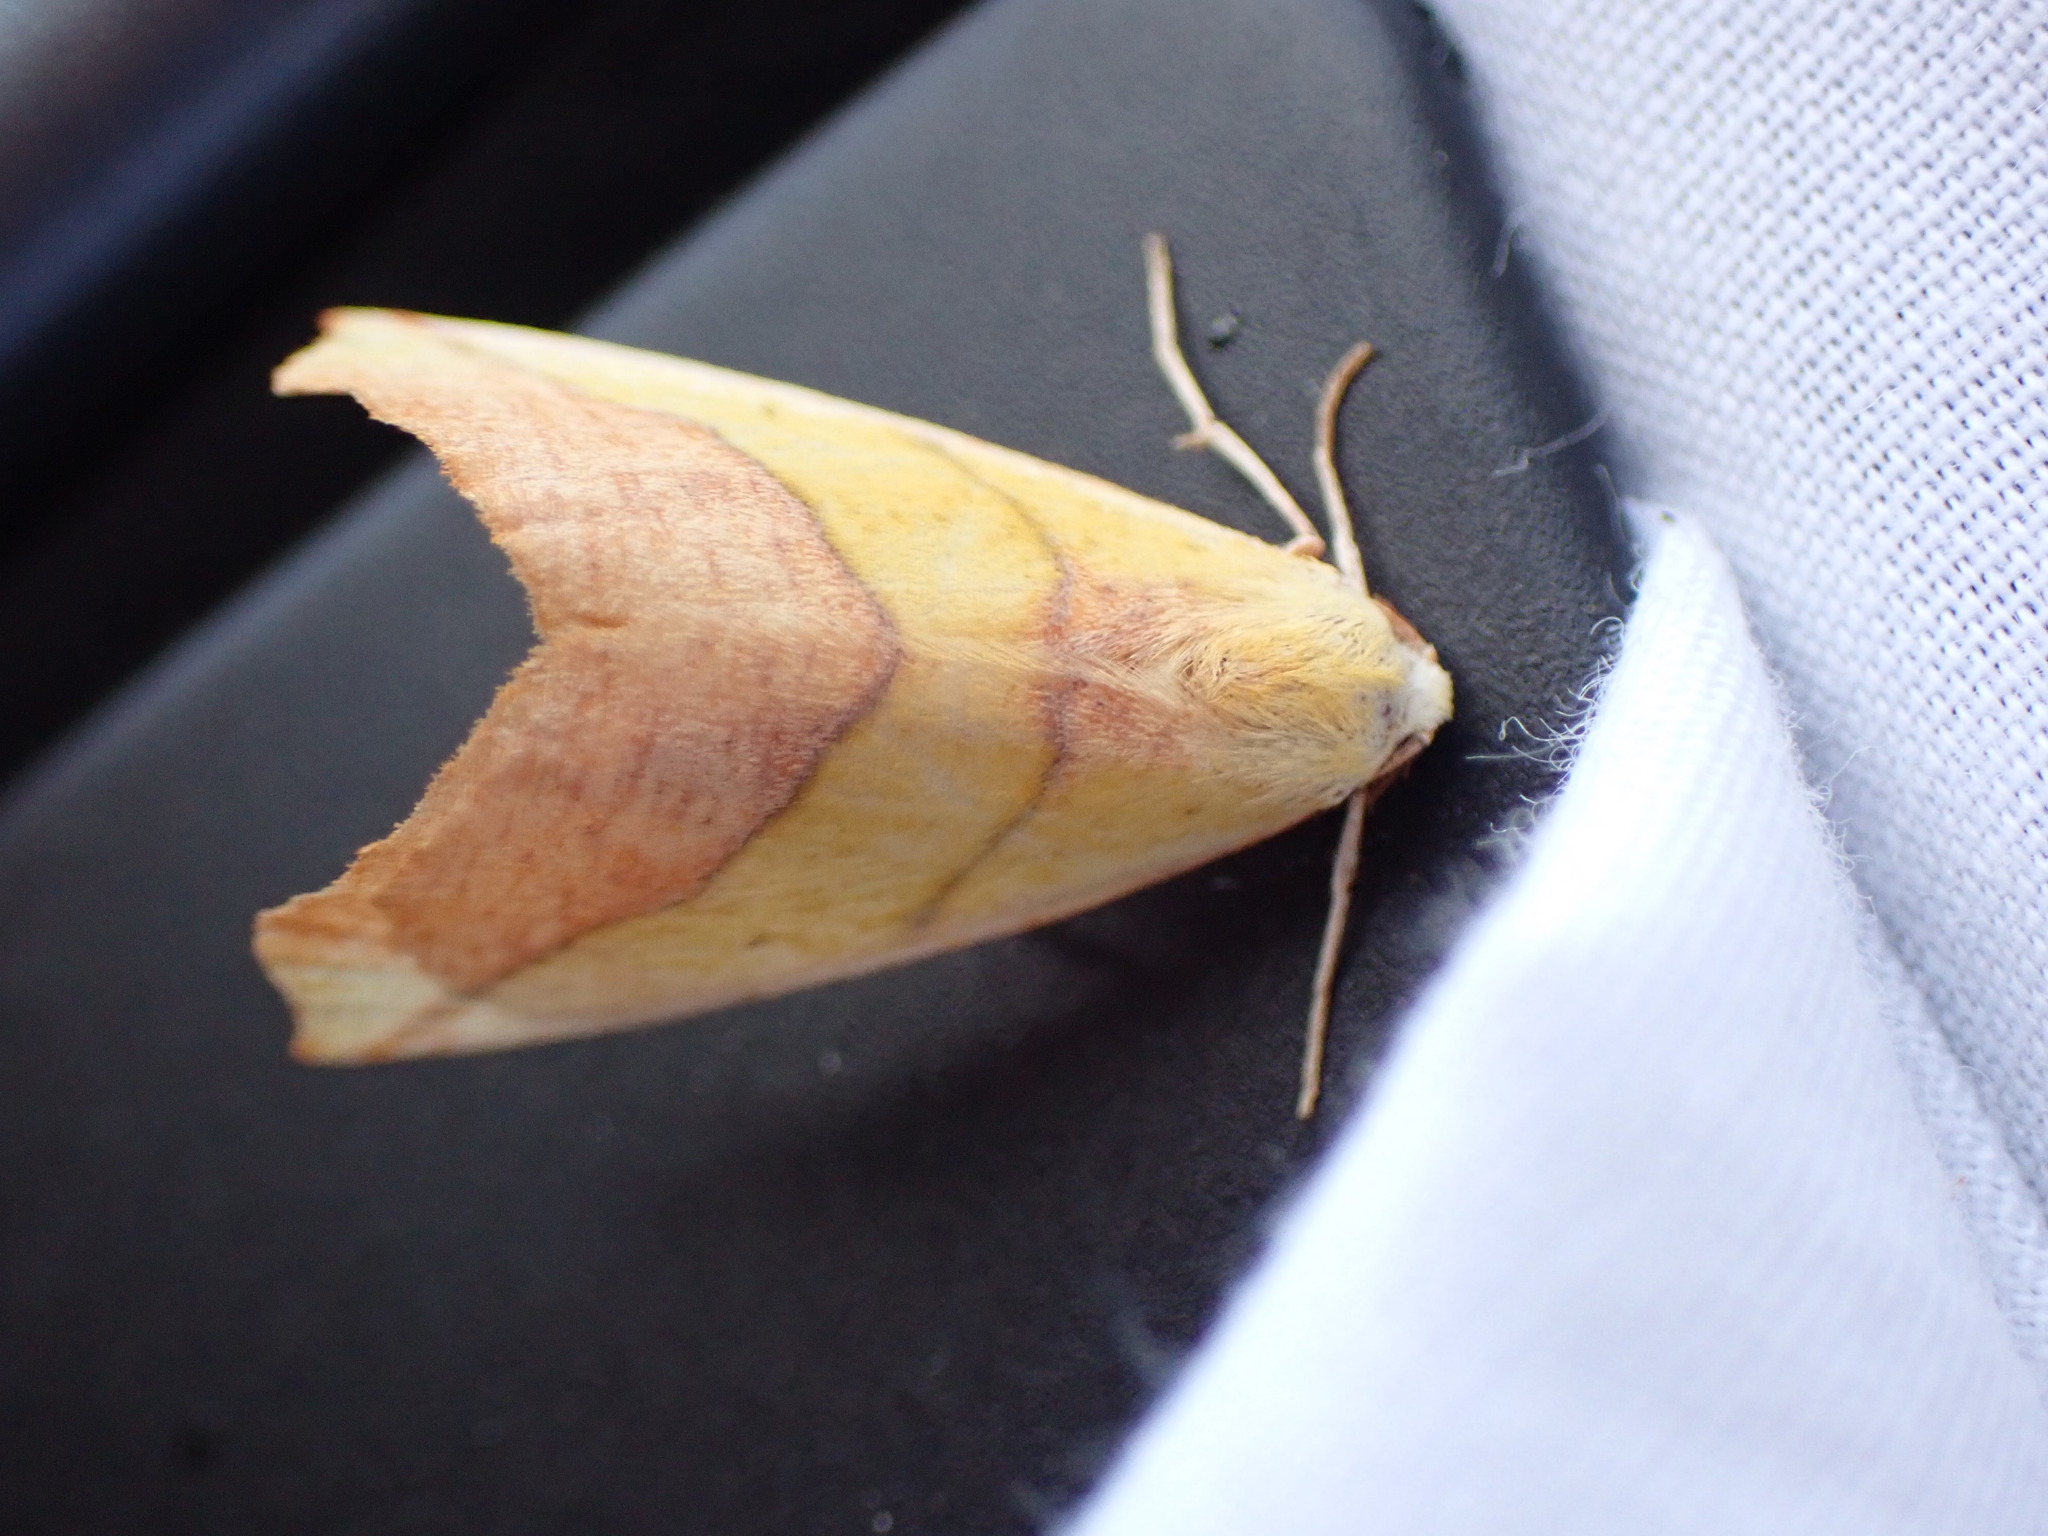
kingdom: Animalia
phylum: Arthropoda
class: Insecta
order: Lepidoptera
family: Geometridae
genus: Sicya
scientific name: Sicya macularia
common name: Sharp-lined yellow
